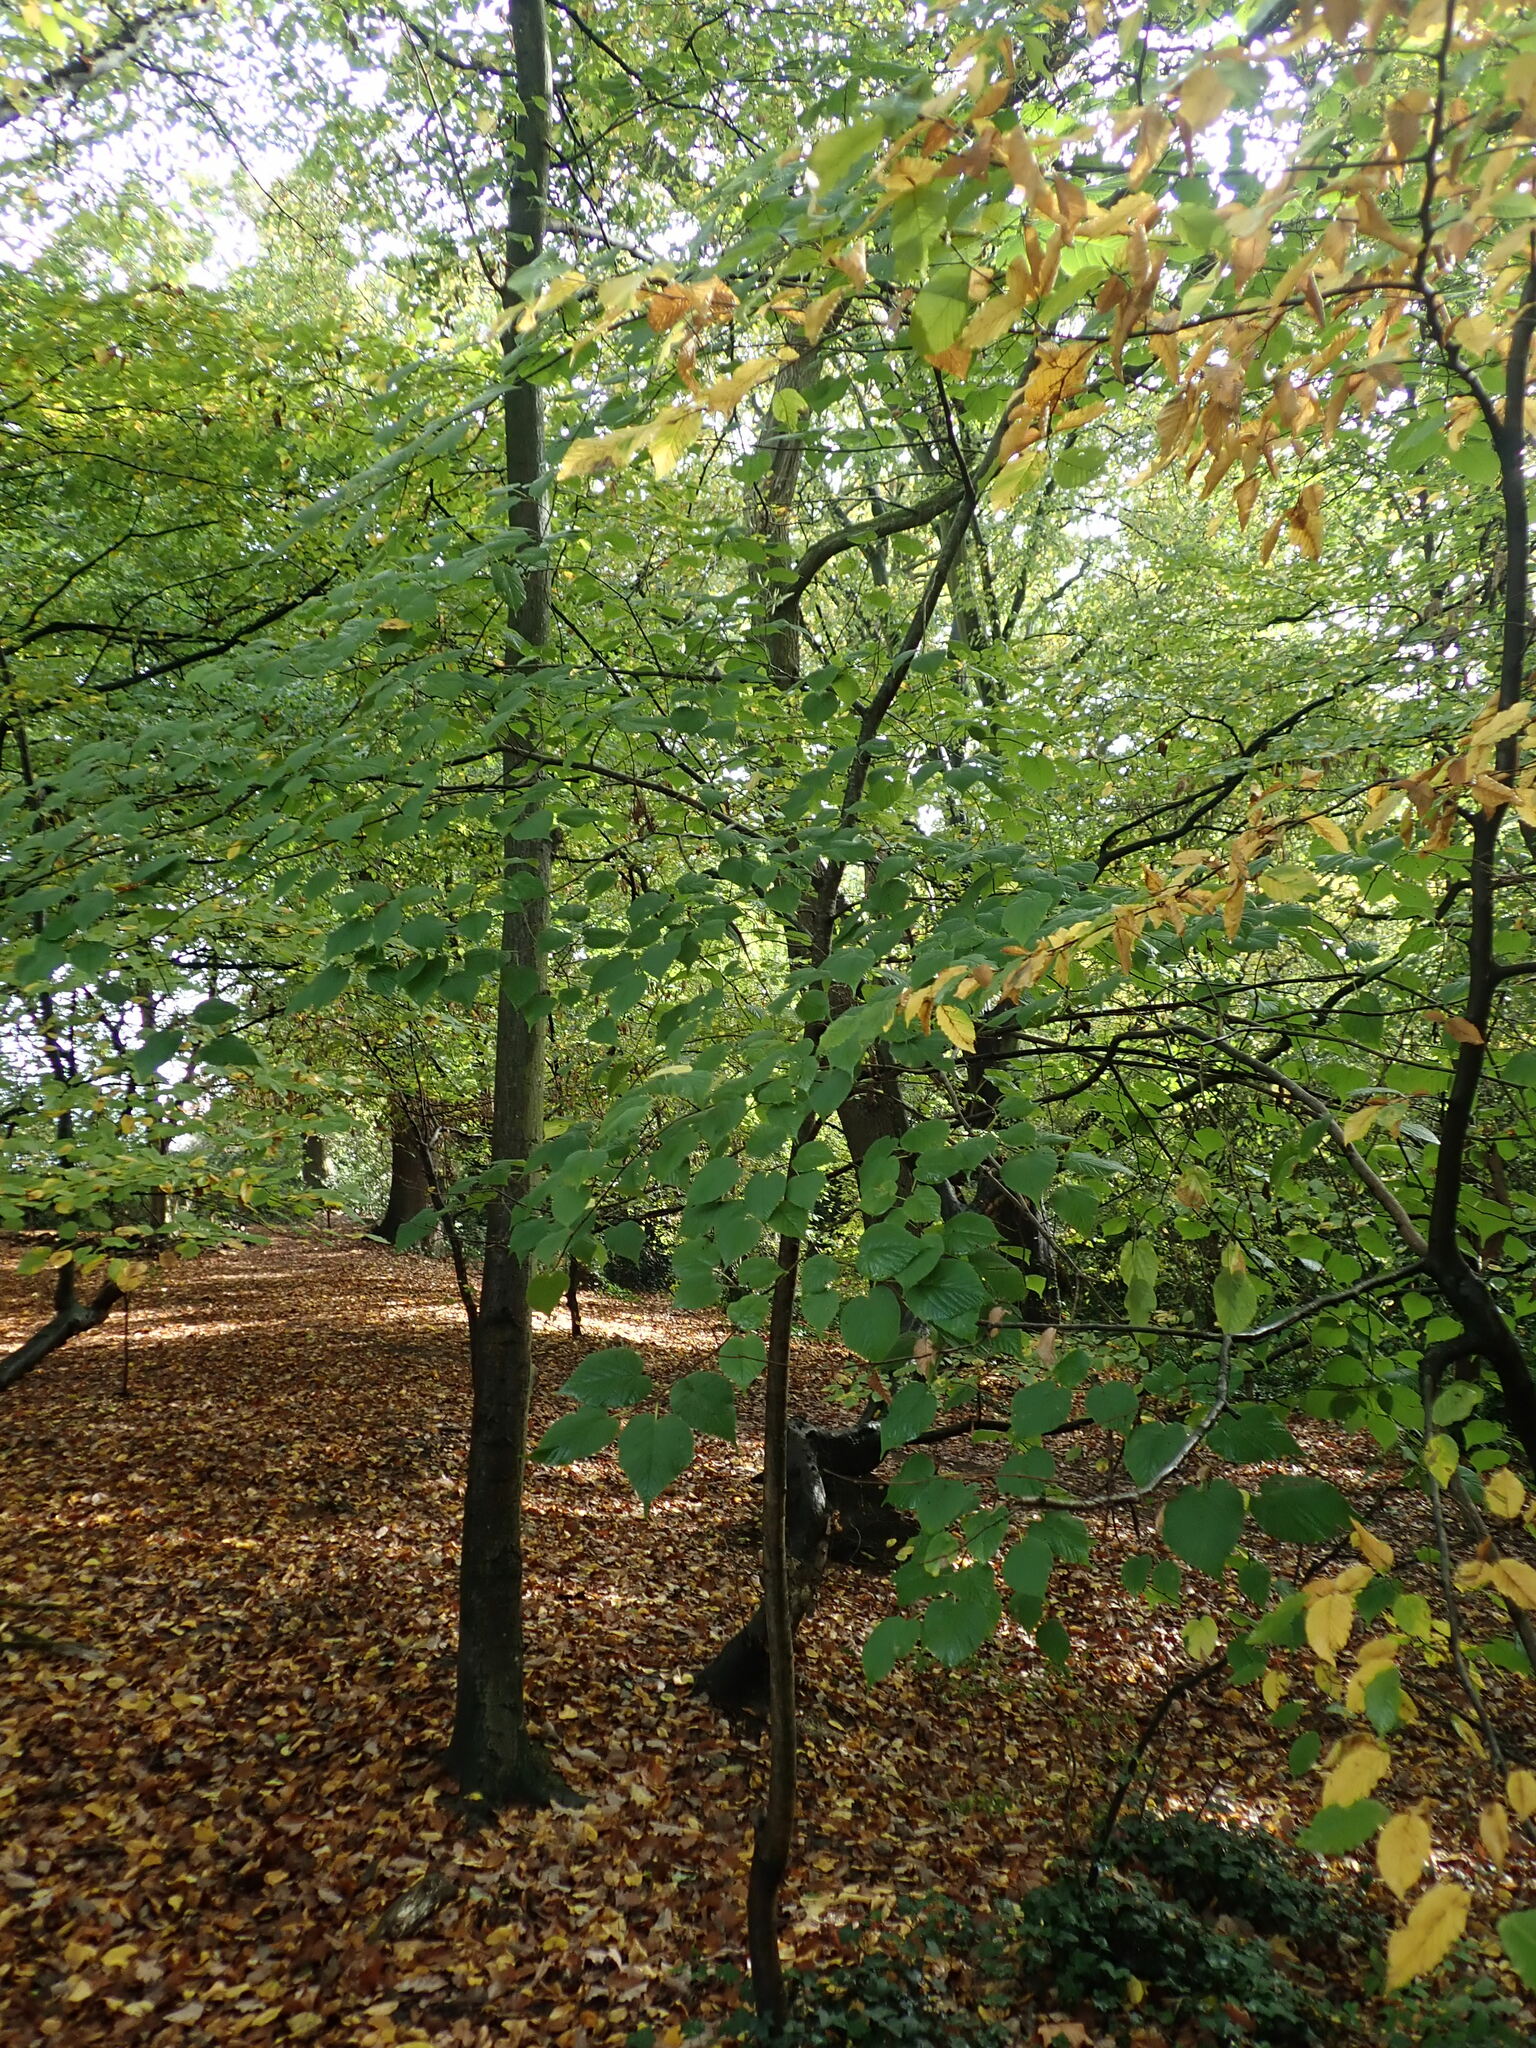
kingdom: Plantae
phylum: Tracheophyta
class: Magnoliopsida
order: Malvales
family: Malvaceae
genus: Tilia
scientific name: Tilia platyphyllos
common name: Large-leaved lime
